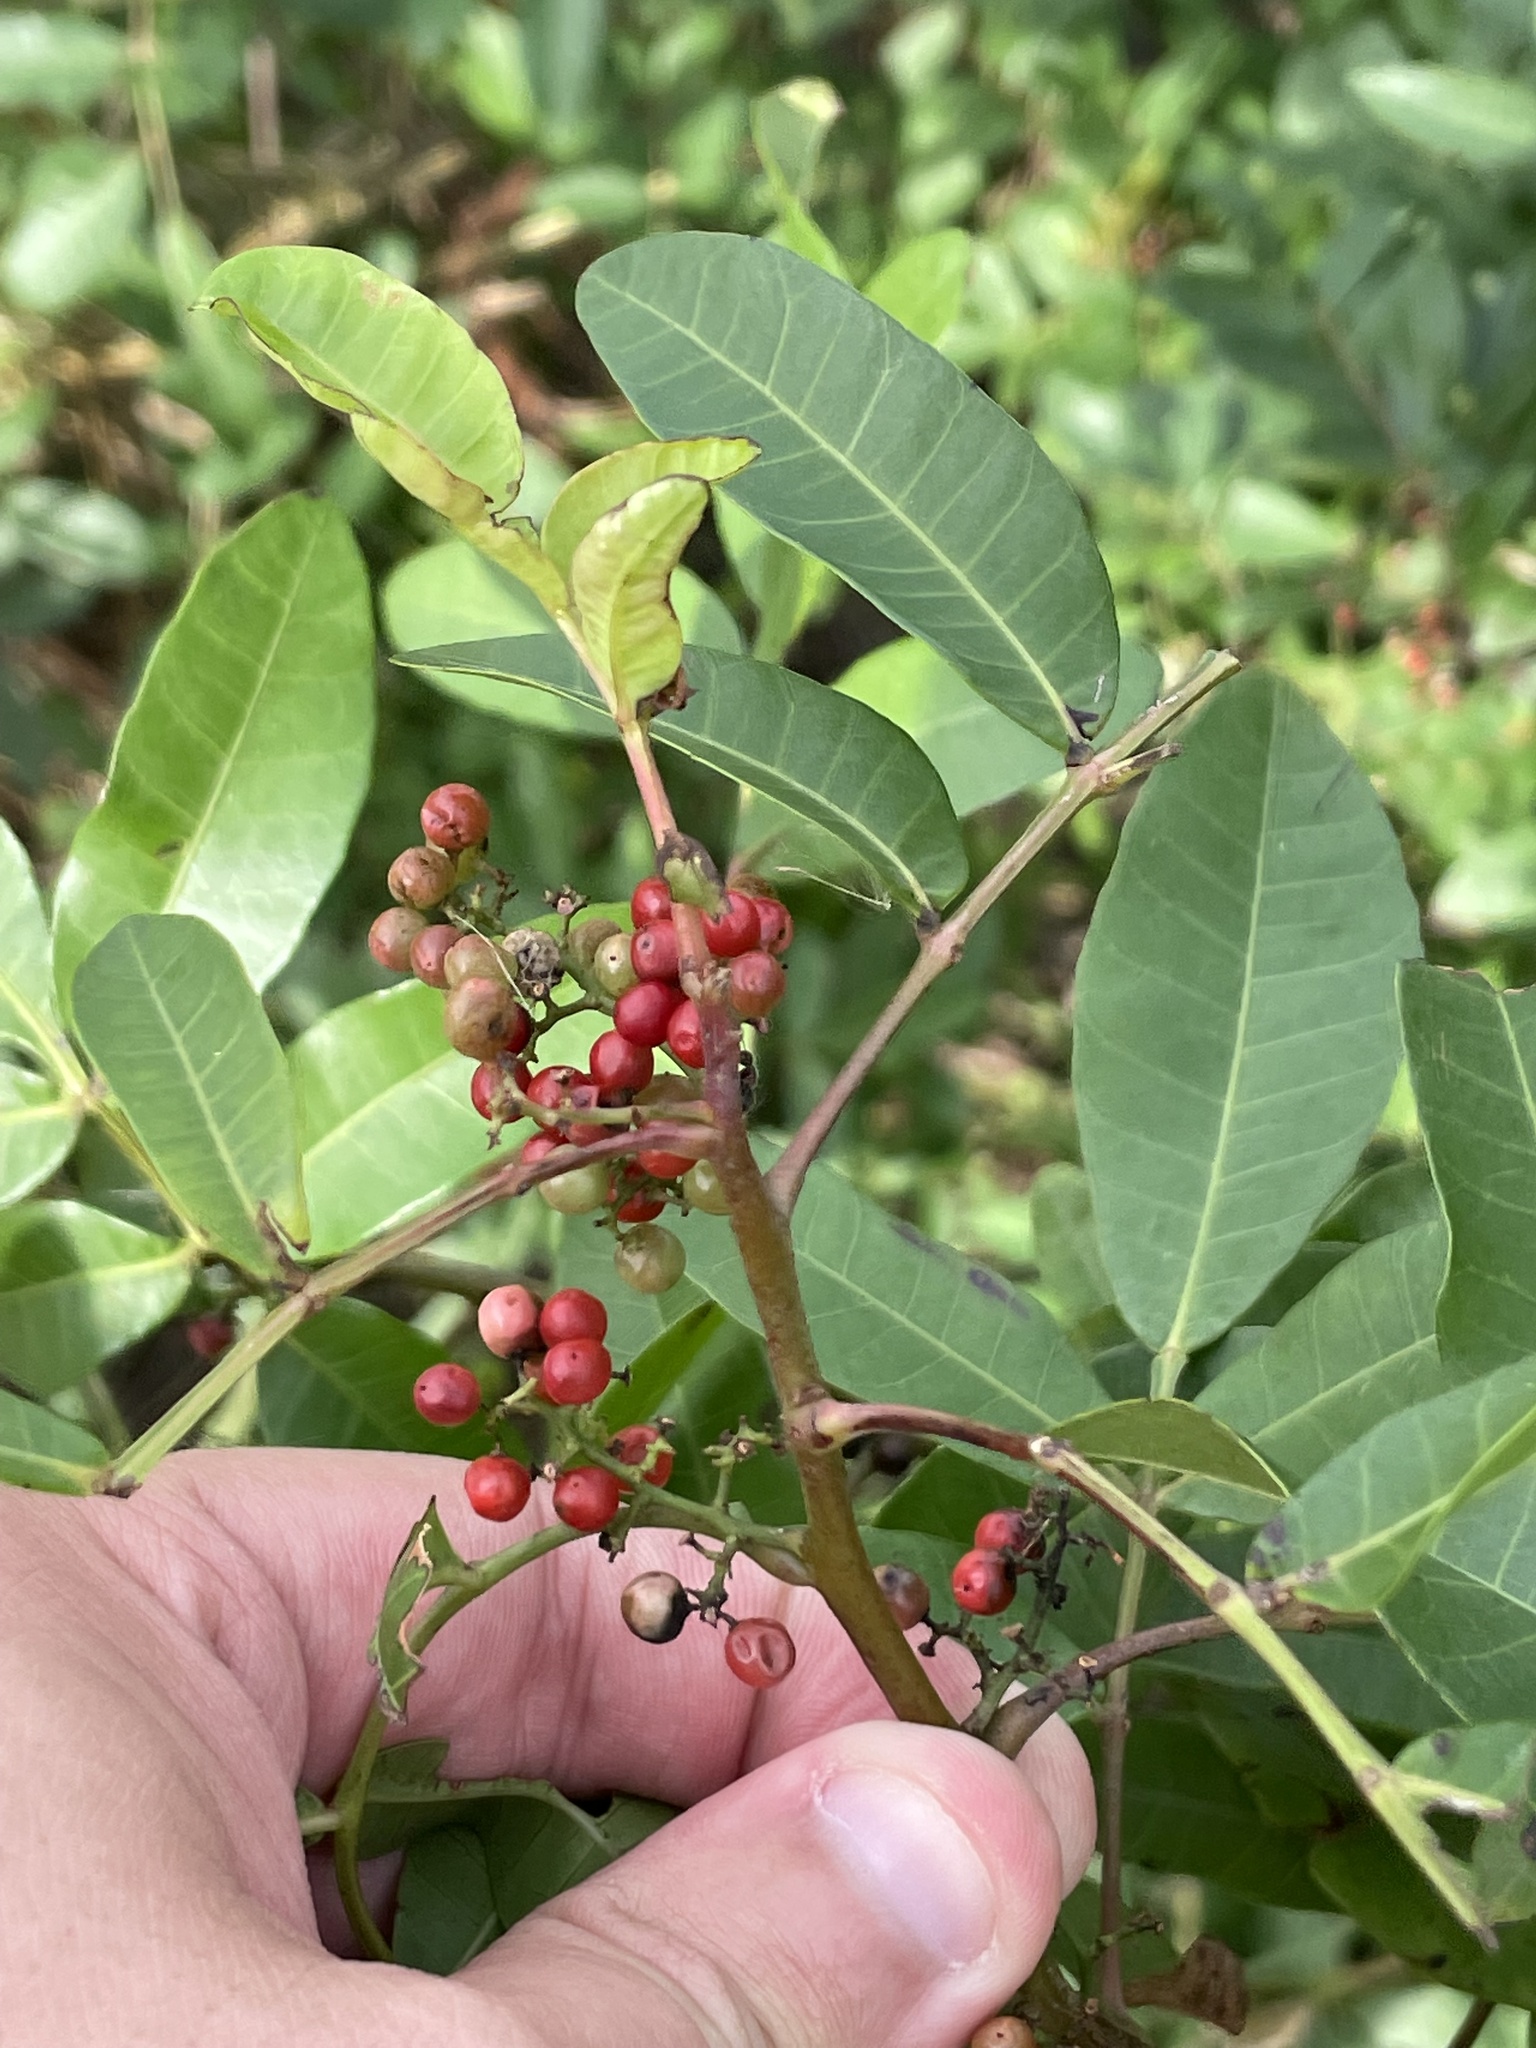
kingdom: Plantae
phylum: Tracheophyta
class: Magnoliopsida
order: Sapindales
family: Anacardiaceae
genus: Schinus
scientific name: Schinus terebinthifolia
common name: Brazilian peppertree
